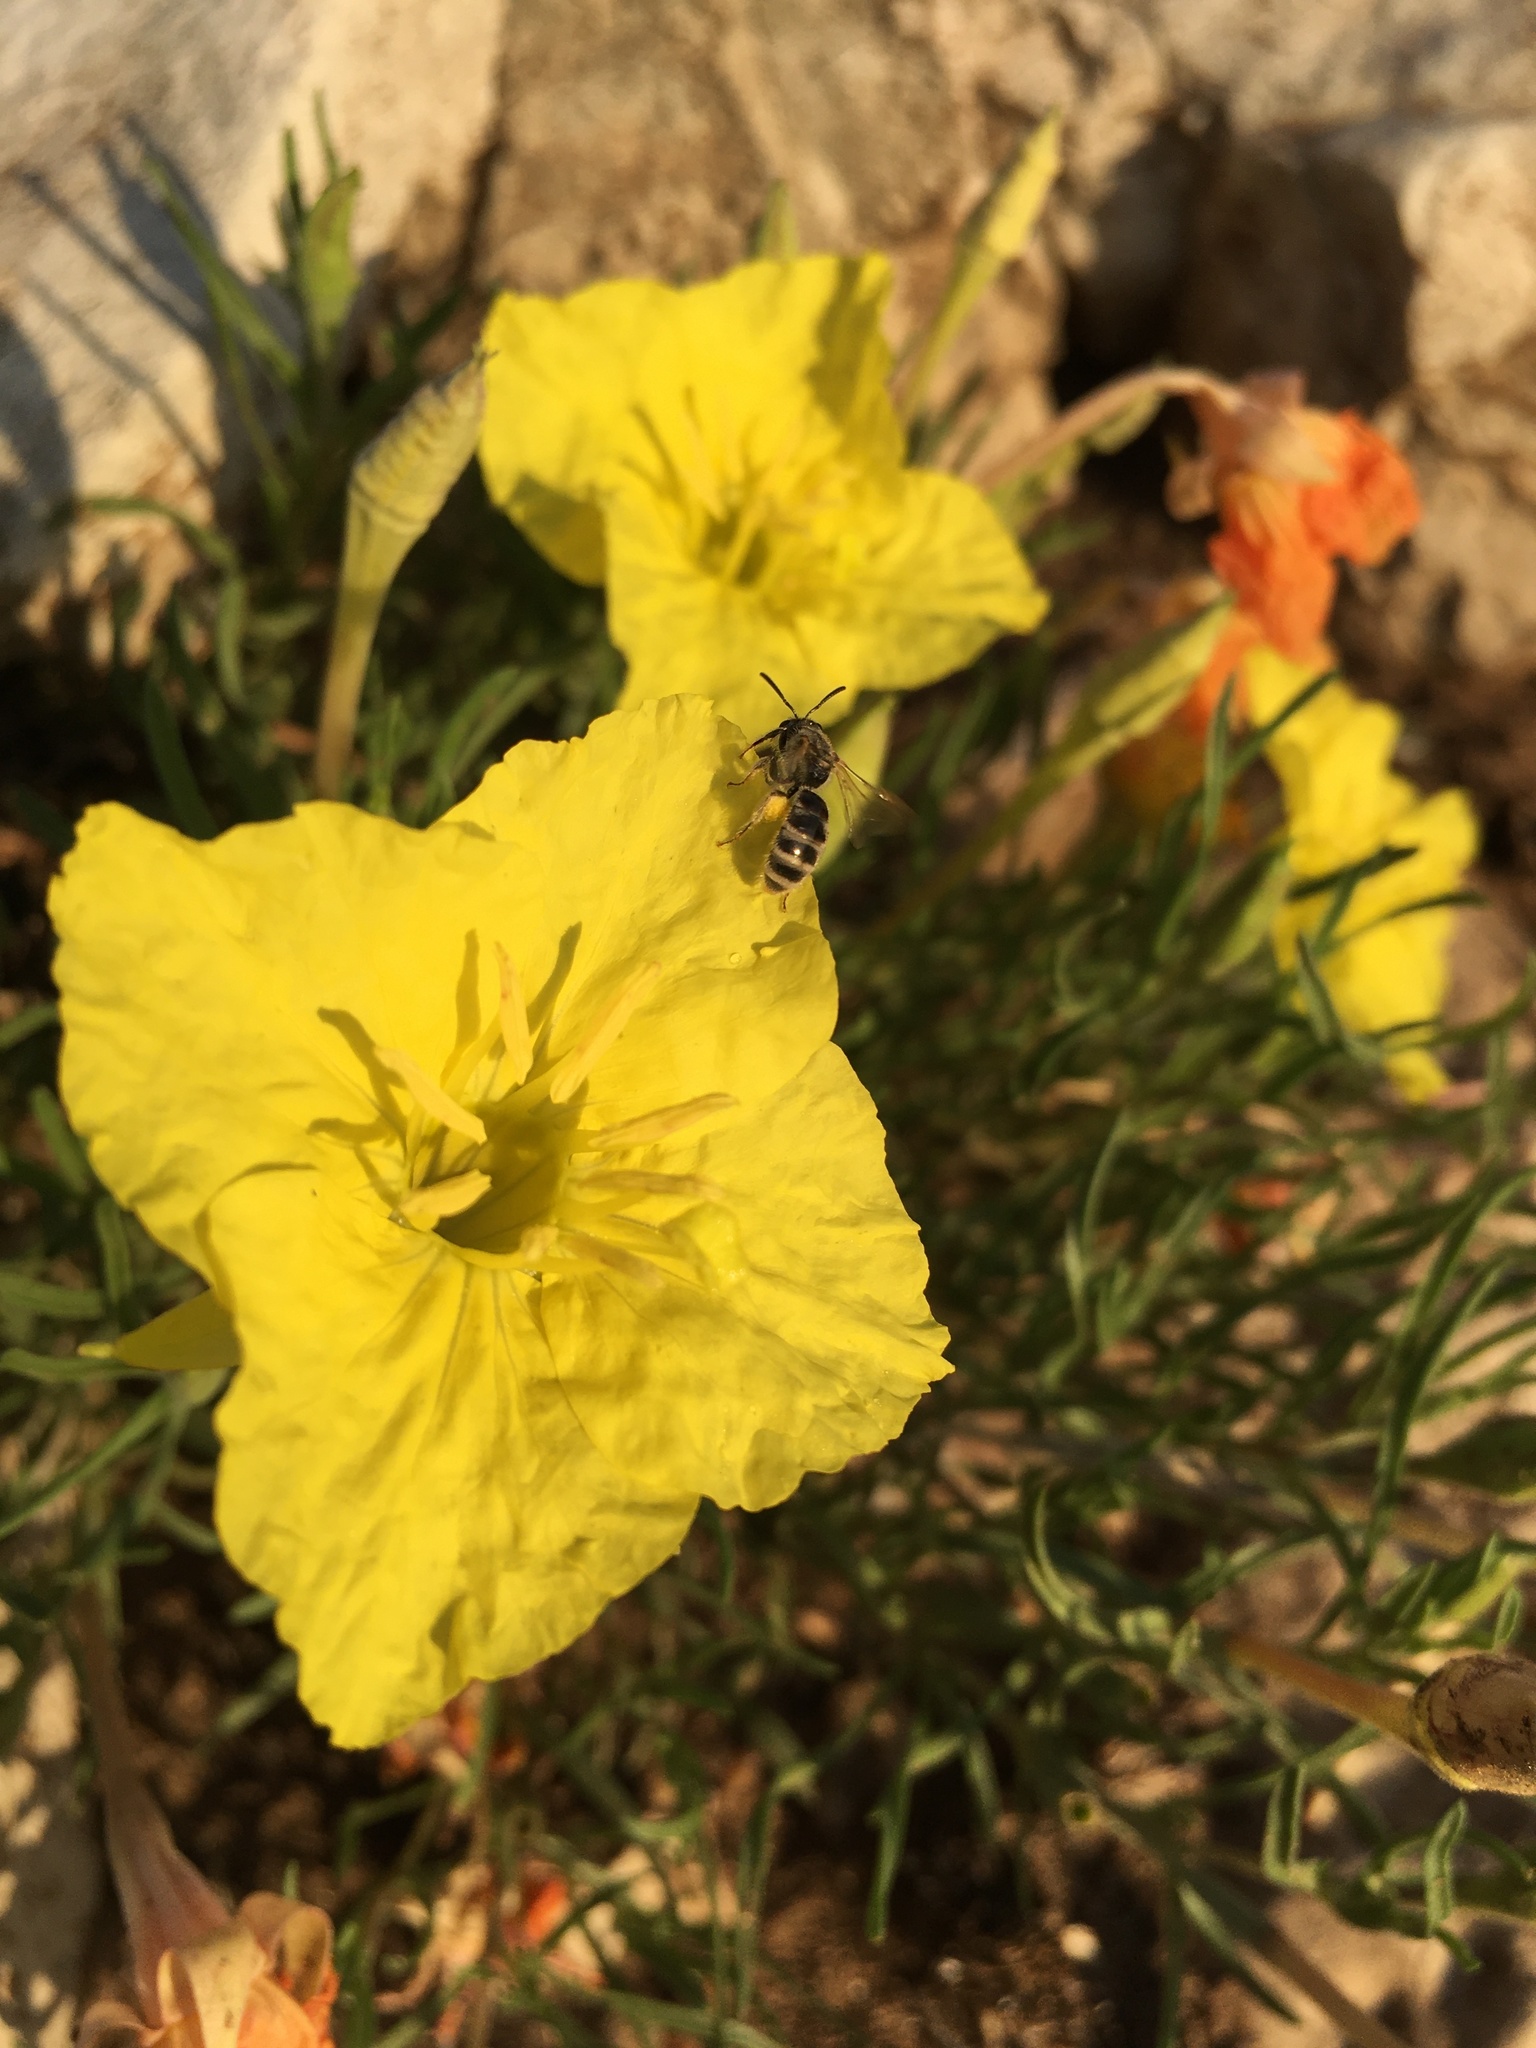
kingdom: Plantae
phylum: Tracheophyta
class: Magnoliopsida
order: Myrtales
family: Onagraceae
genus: Oenothera
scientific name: Oenothera lavandulifolia
